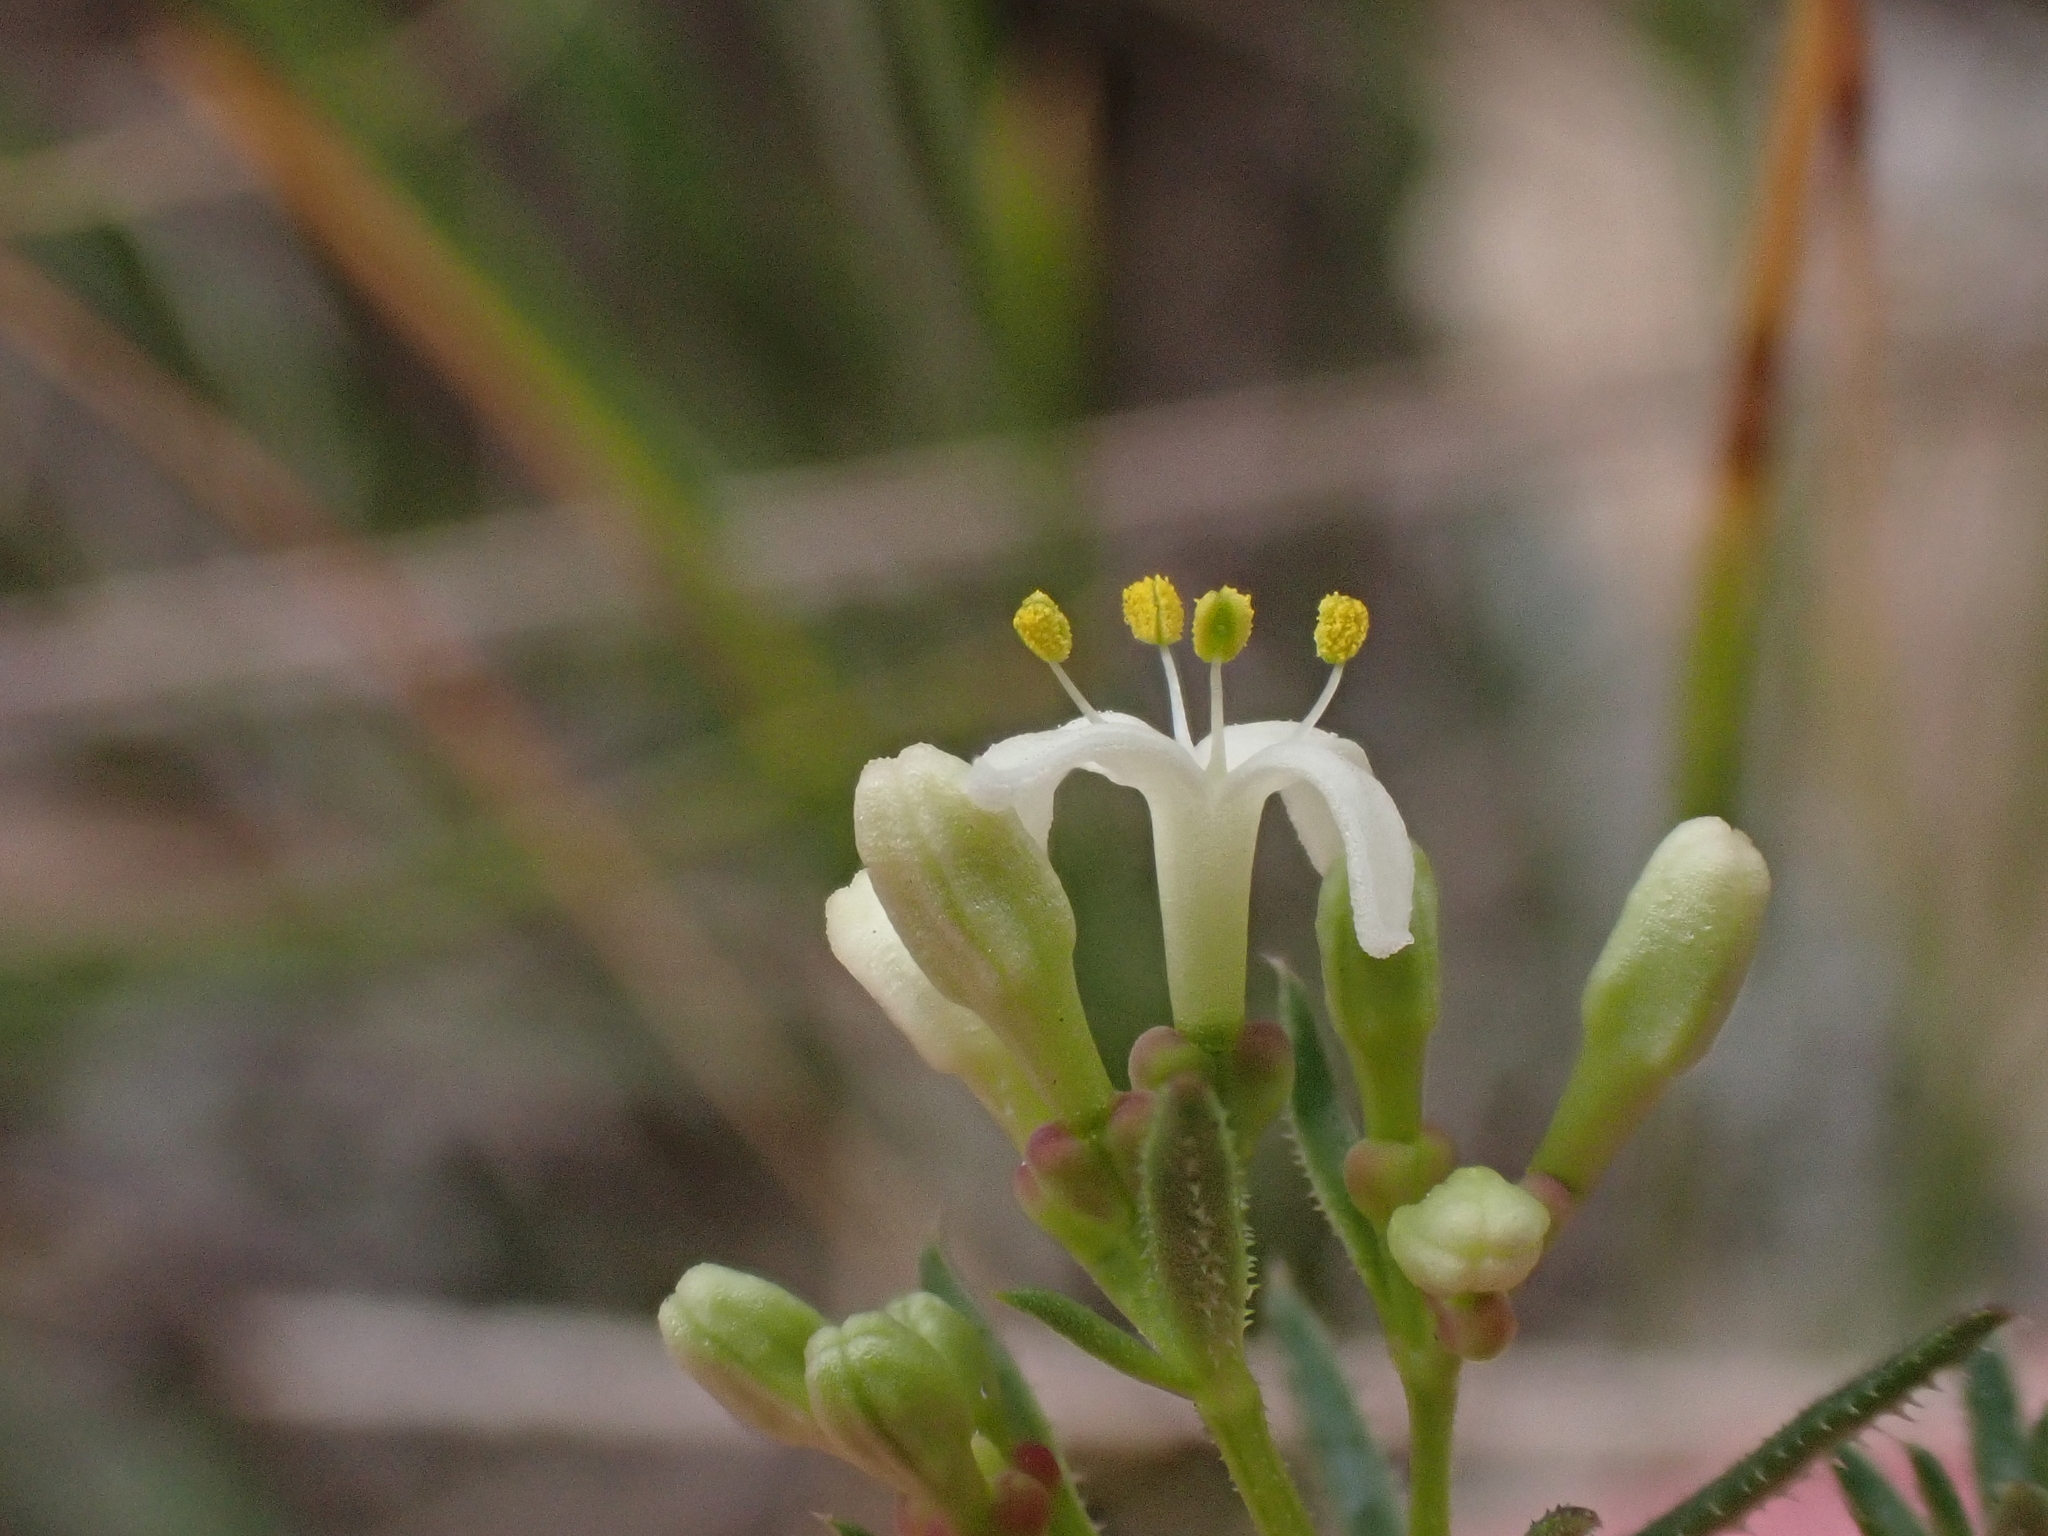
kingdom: Plantae
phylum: Tracheophyta
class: Magnoliopsida
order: Gentianales
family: Rubiaceae
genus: Asperula
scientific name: Asperula conferta
